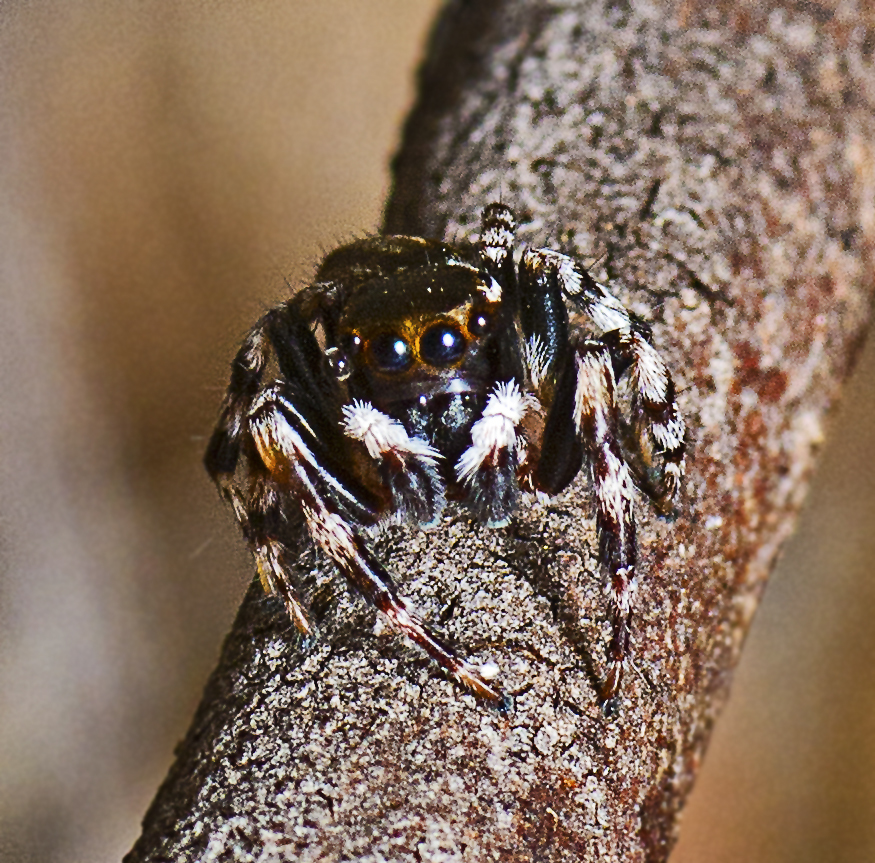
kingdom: Animalia
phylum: Arthropoda
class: Arachnida
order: Araneae
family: Salticidae
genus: Maratus
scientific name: Maratus scutulatus
